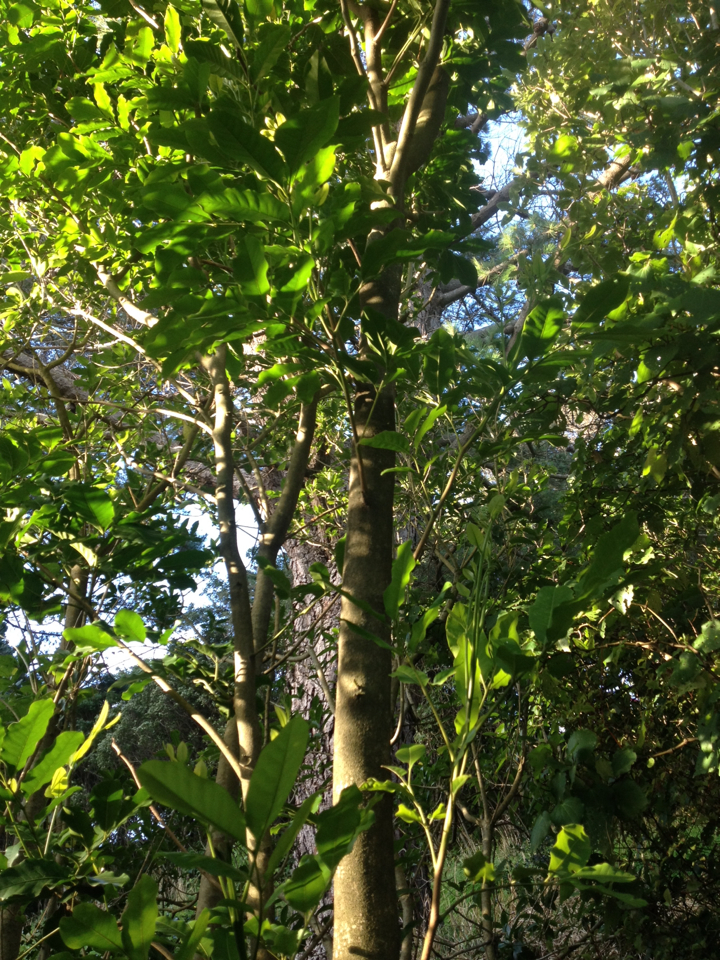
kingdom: Plantae
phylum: Tracheophyta
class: Magnoliopsida
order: Sapindales
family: Meliaceae
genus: Didymocheton
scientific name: Didymocheton spectabilis
